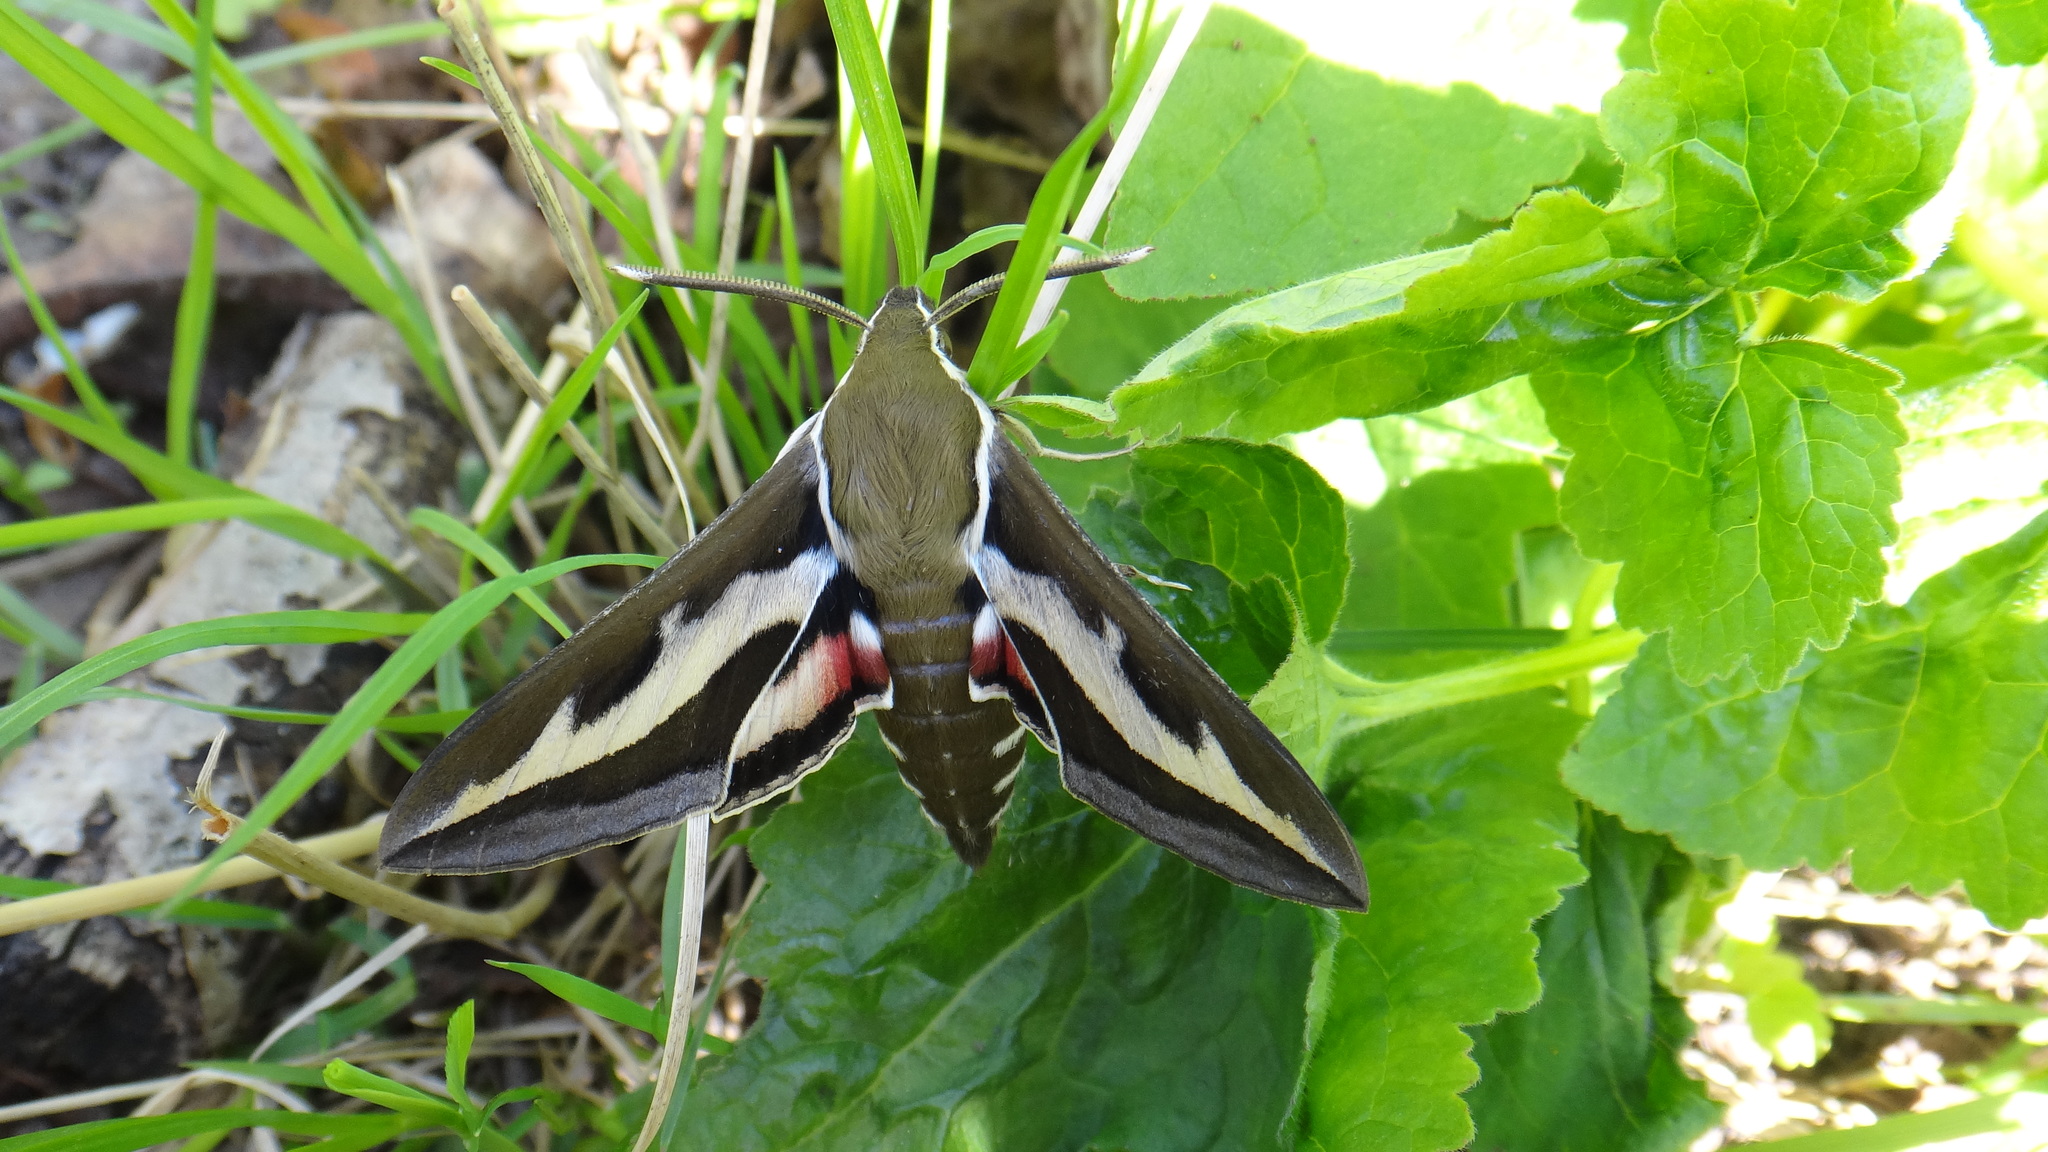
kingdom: Animalia
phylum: Arthropoda
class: Insecta
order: Lepidoptera
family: Sphingidae
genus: Hyles
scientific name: Hyles gallii
